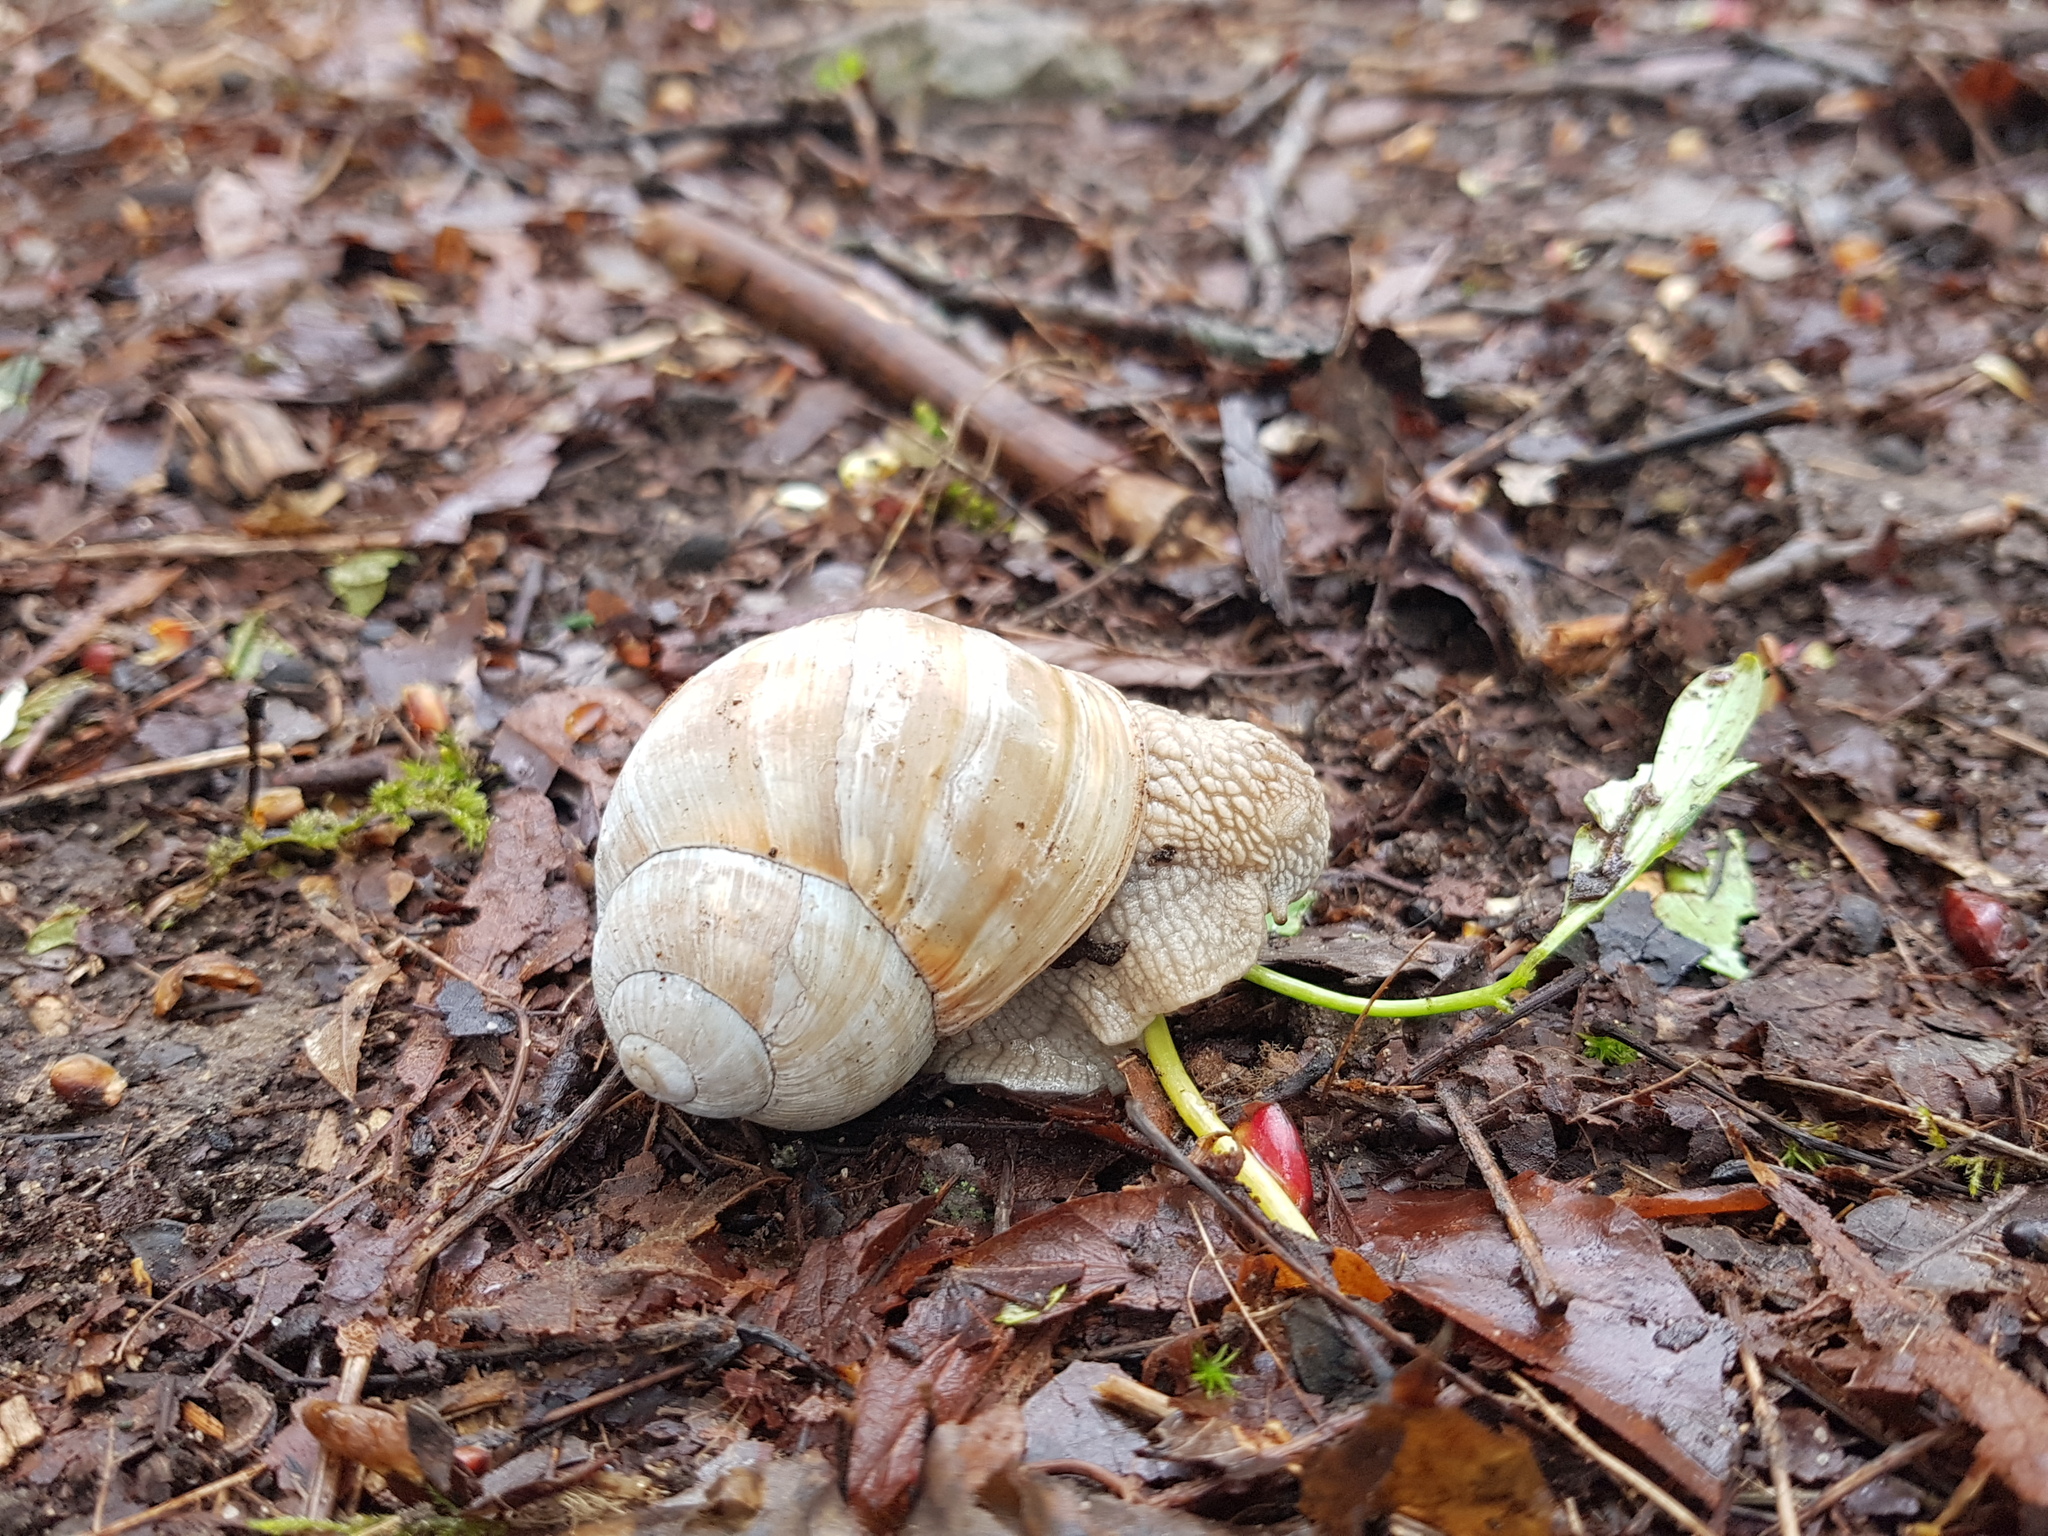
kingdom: Animalia
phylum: Mollusca
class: Gastropoda
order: Stylommatophora
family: Helicidae
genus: Helix
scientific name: Helix pomatia
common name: Roman snail
